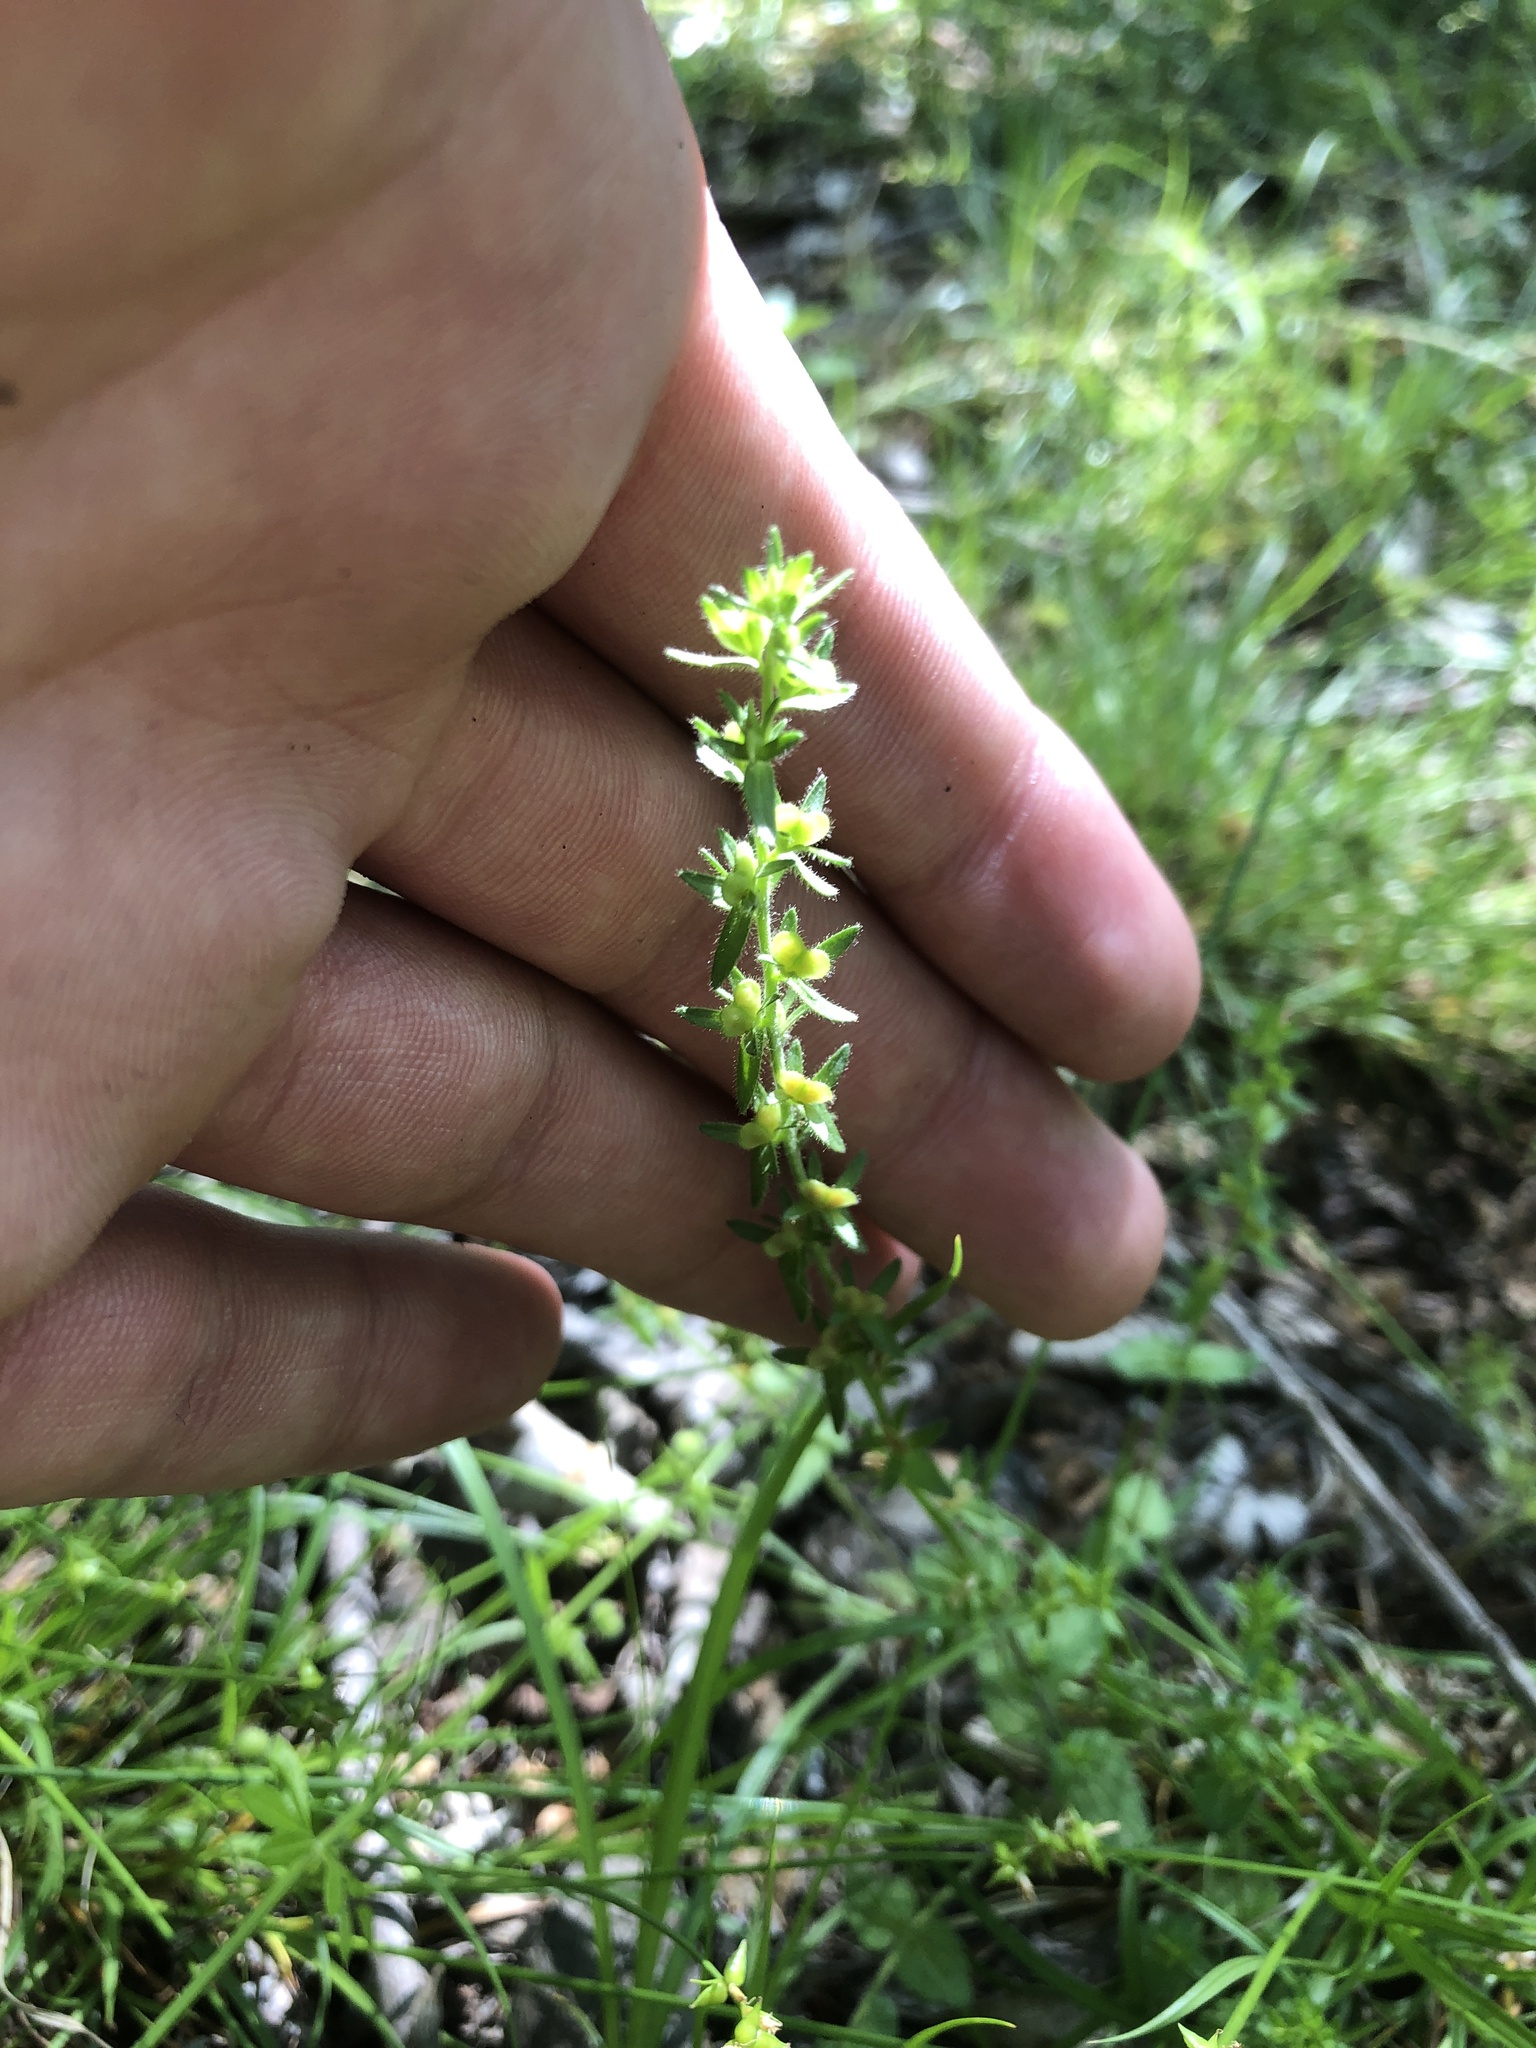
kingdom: Plantae
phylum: Tracheophyta
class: Magnoliopsida
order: Lamiales
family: Plantaginaceae
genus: Veronica
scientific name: Veronica arvensis
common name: Corn speedwell
